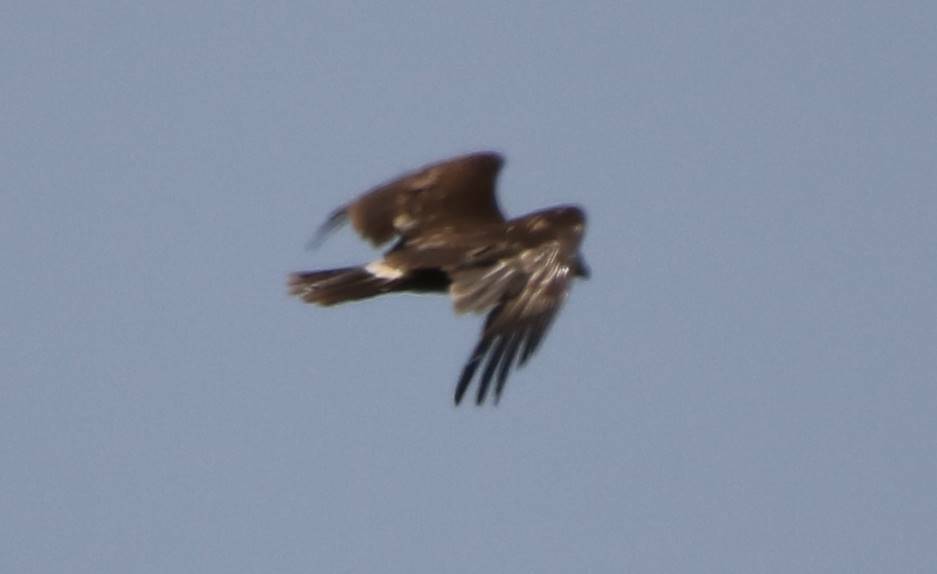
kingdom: Animalia
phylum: Chordata
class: Aves
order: Accipitriformes
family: Accipitridae
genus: Aquila
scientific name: Aquila clanga
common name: Greater spotted eagle
